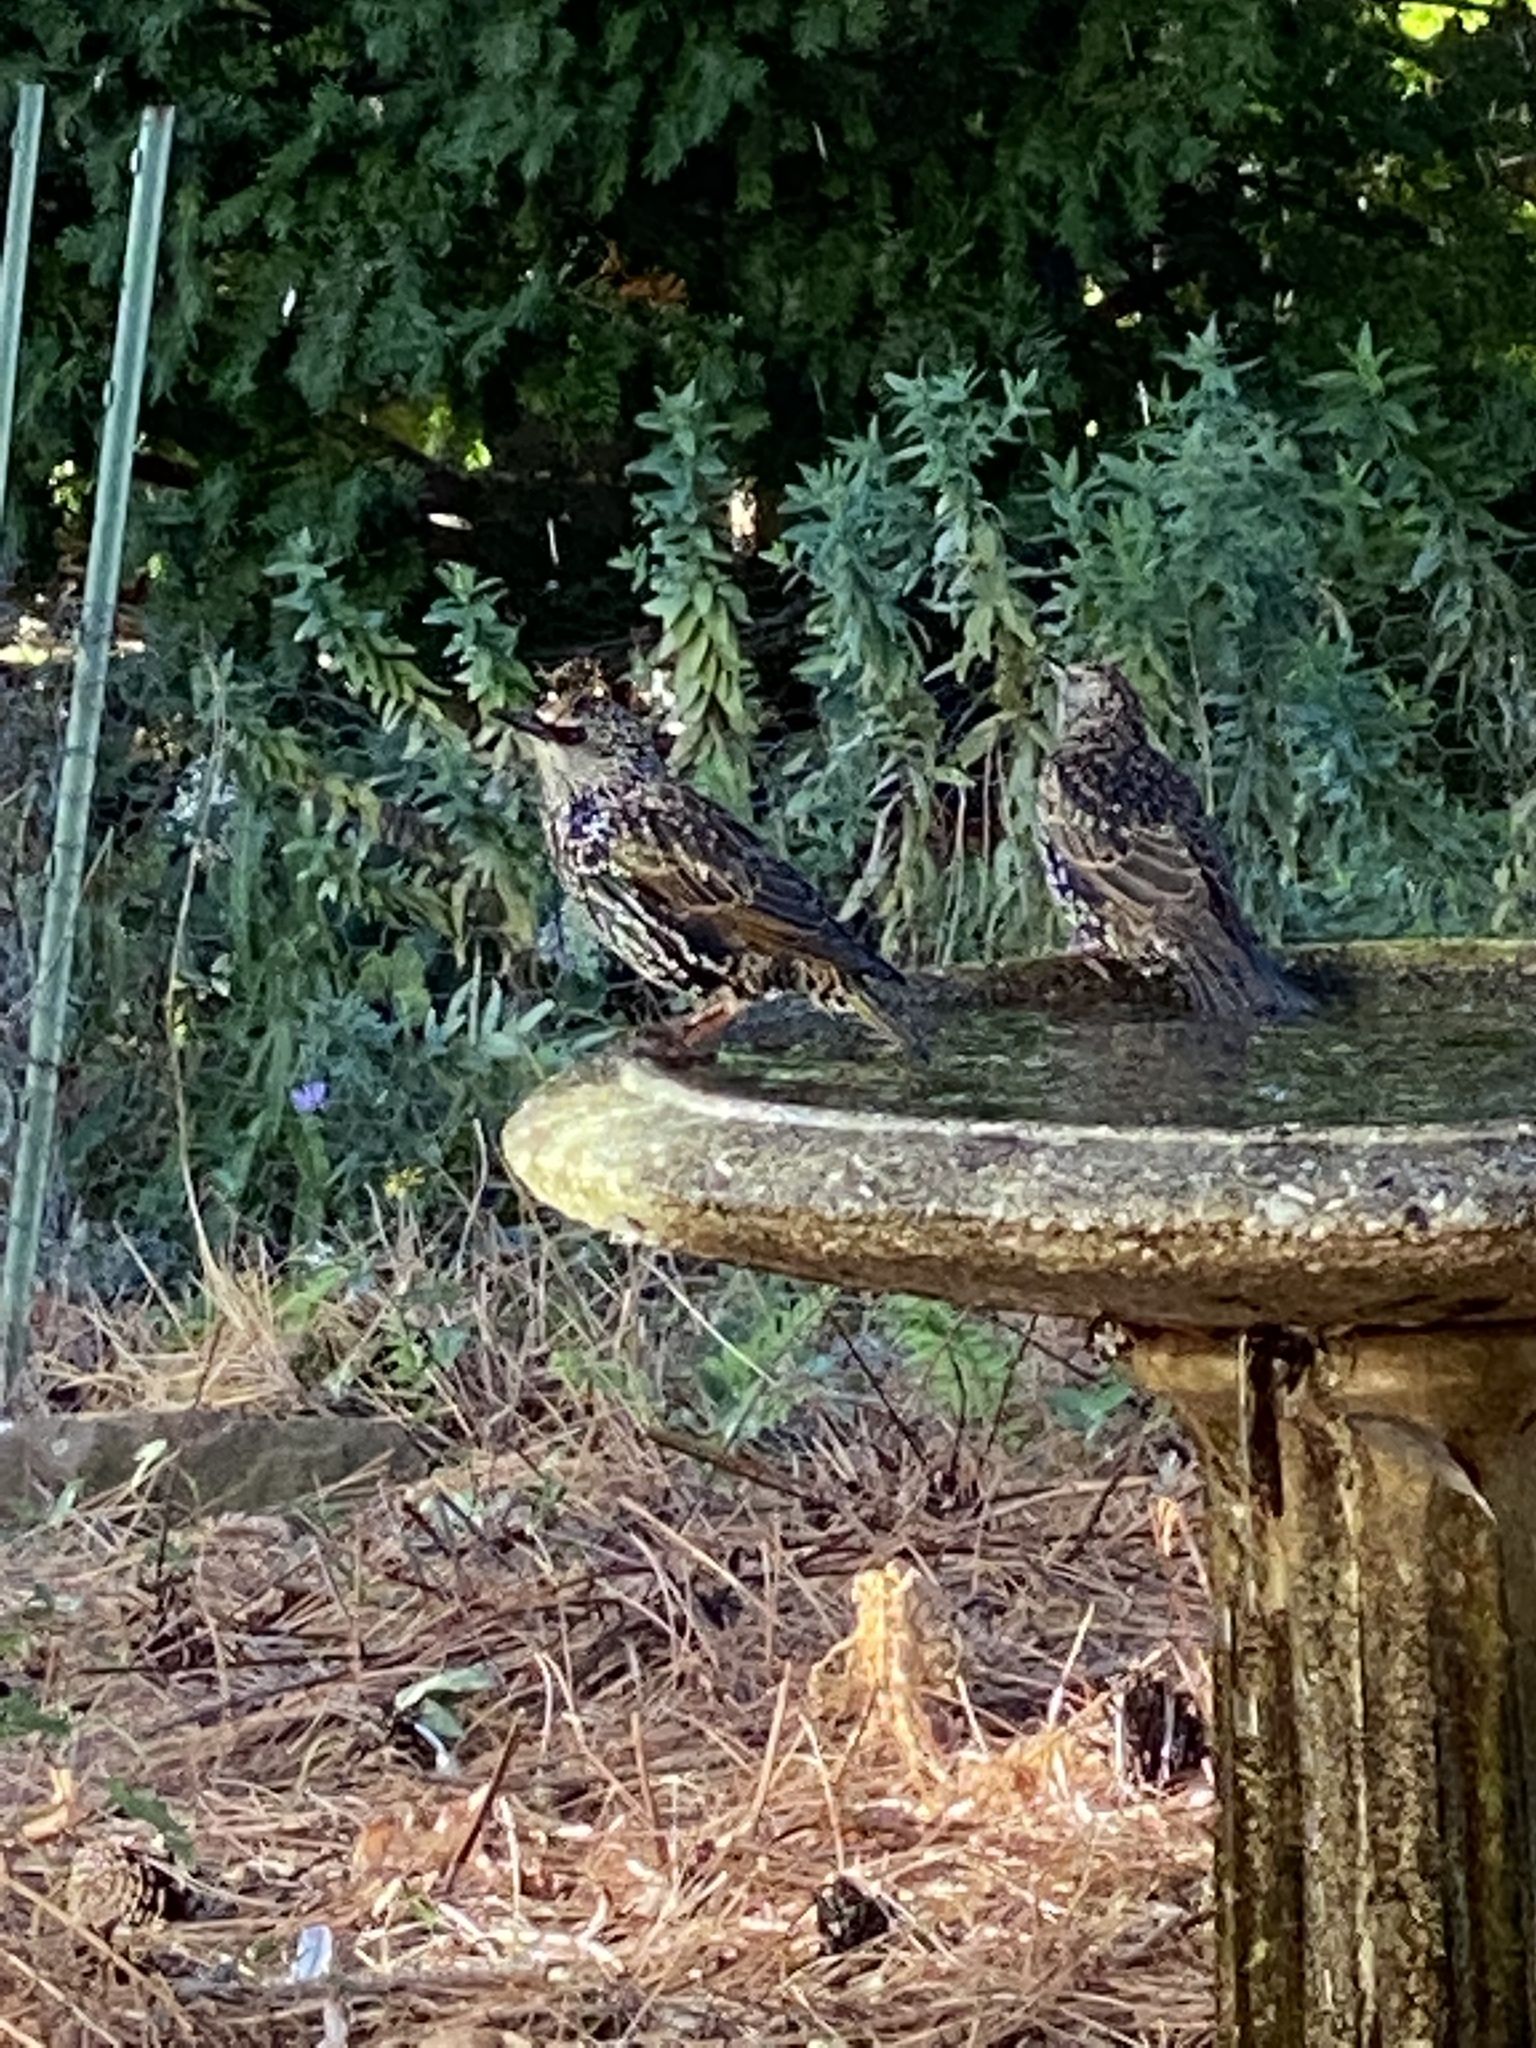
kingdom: Animalia
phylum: Chordata
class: Aves
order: Passeriformes
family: Sturnidae
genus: Sturnus
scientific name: Sturnus vulgaris
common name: Common starling
